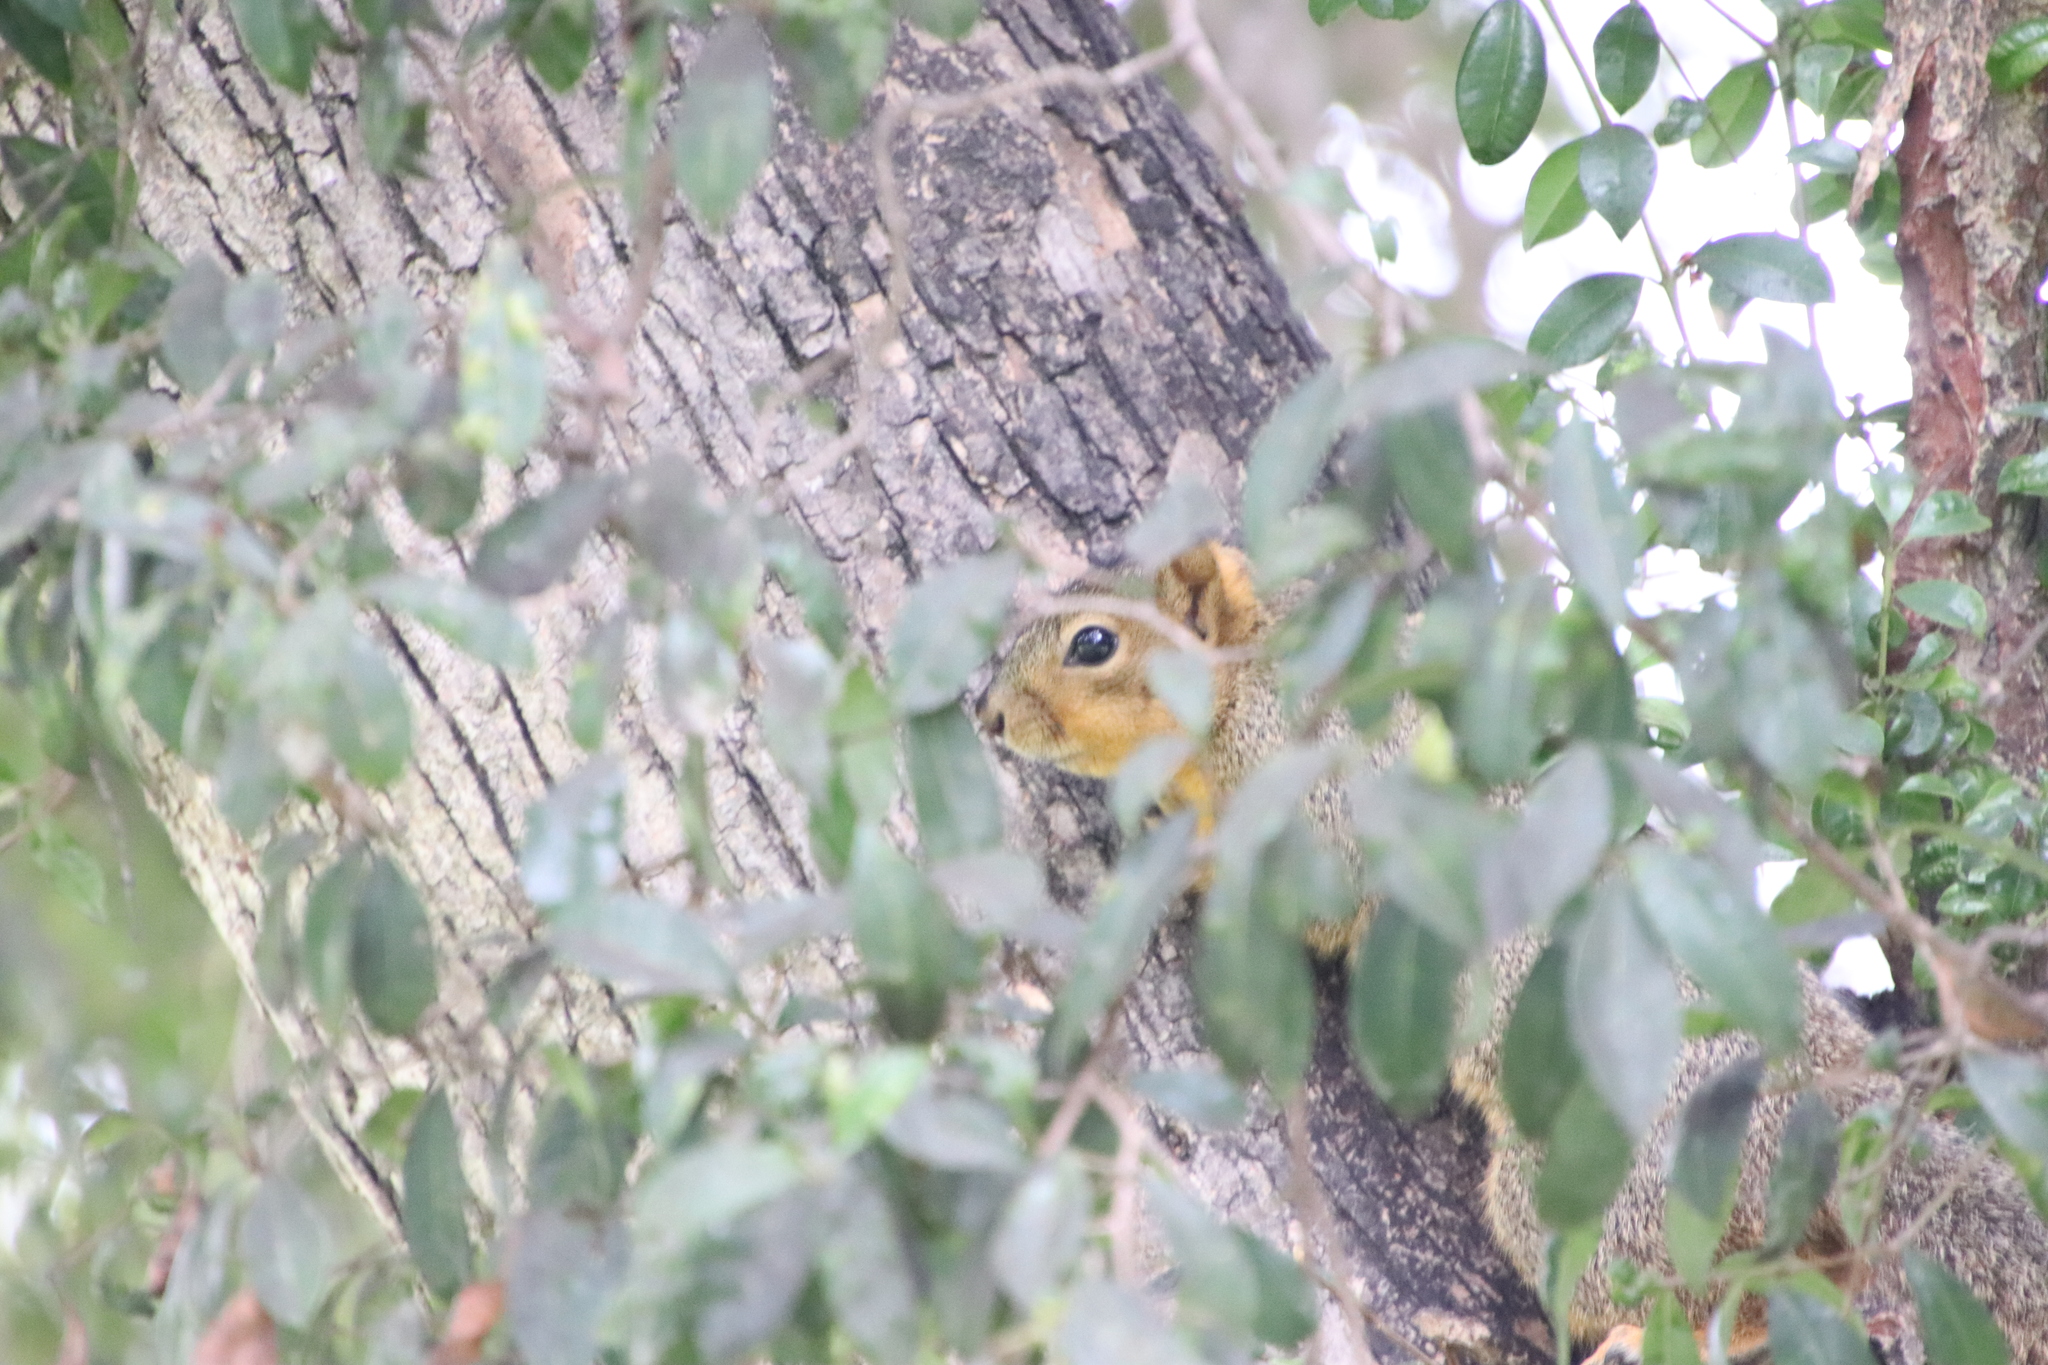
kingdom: Animalia
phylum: Chordata
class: Mammalia
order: Rodentia
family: Sciuridae
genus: Sciurus
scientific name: Sciurus niger
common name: Fox squirrel
